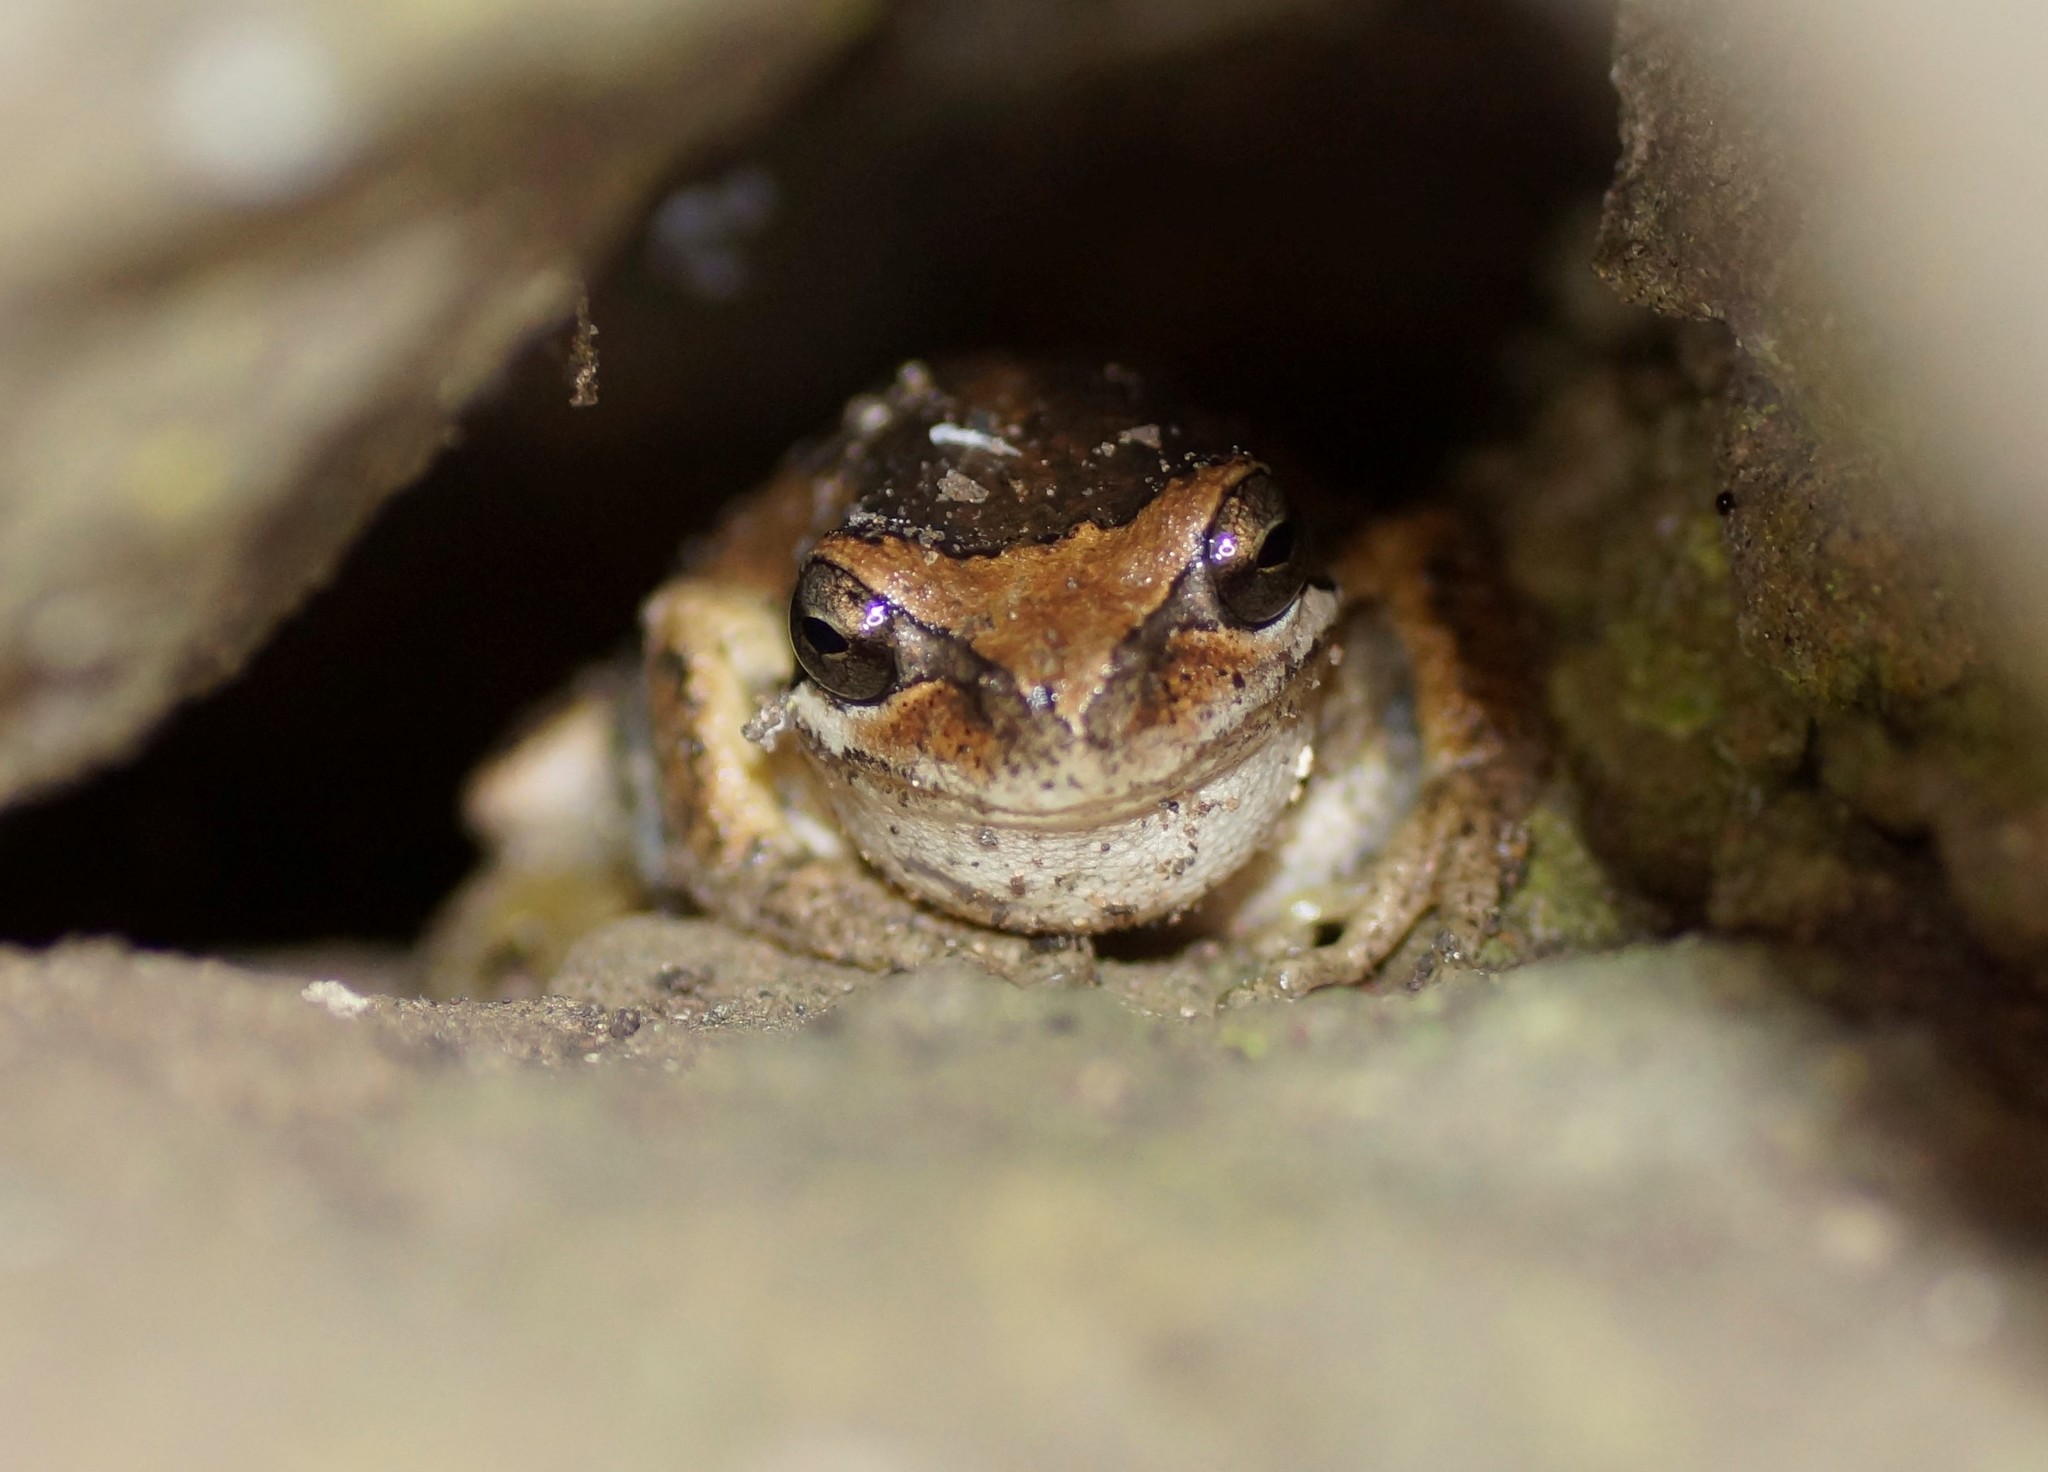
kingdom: Animalia
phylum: Chordata
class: Amphibia
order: Anura
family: Pelodryadidae
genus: Litoria
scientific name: Litoria ewingii
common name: Southern brown tree frog
